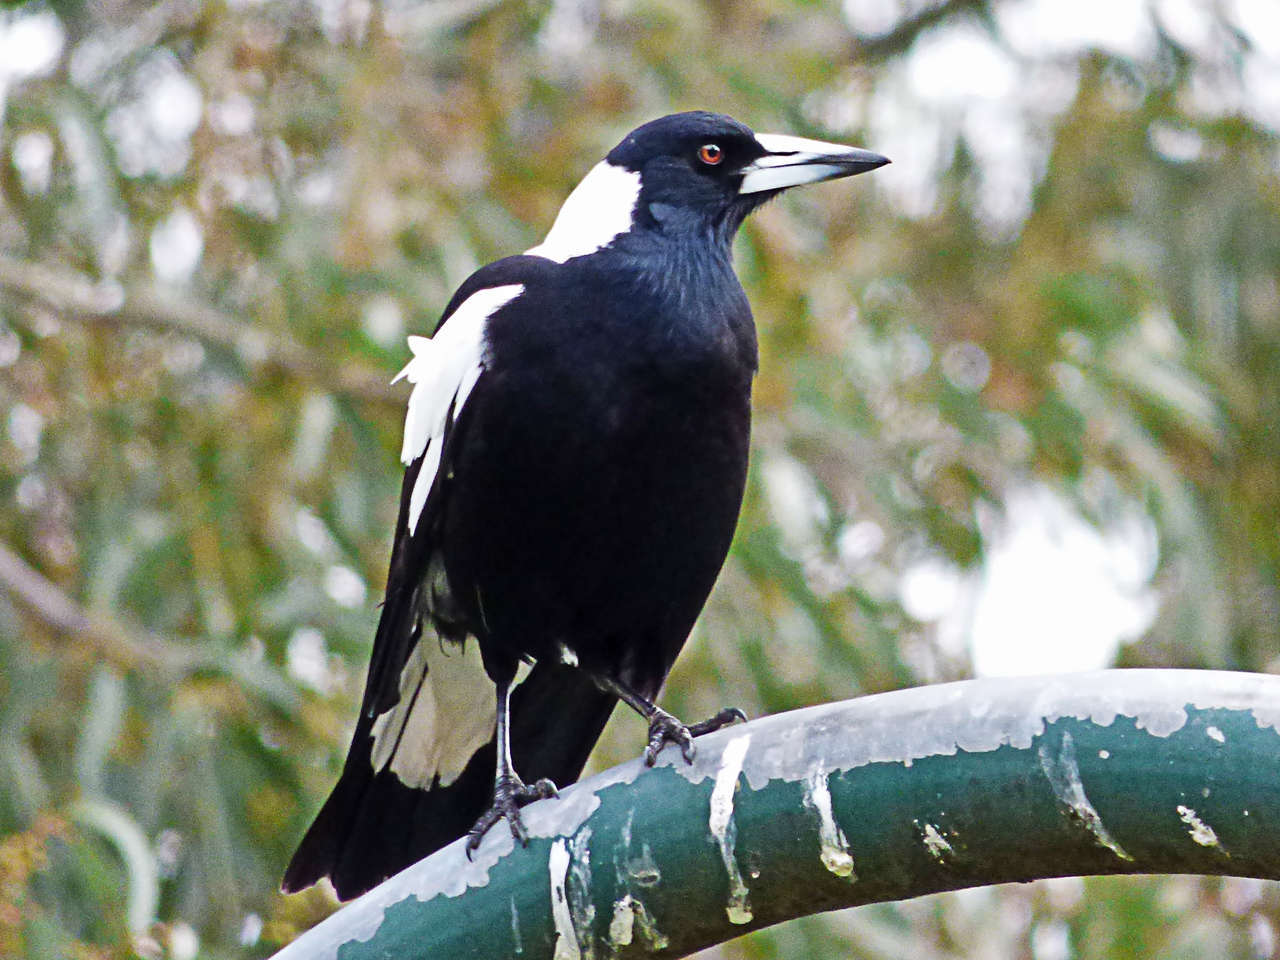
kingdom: Animalia
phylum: Chordata
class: Aves
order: Passeriformes
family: Cracticidae
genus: Gymnorhina
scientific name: Gymnorhina tibicen
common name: Australian magpie
